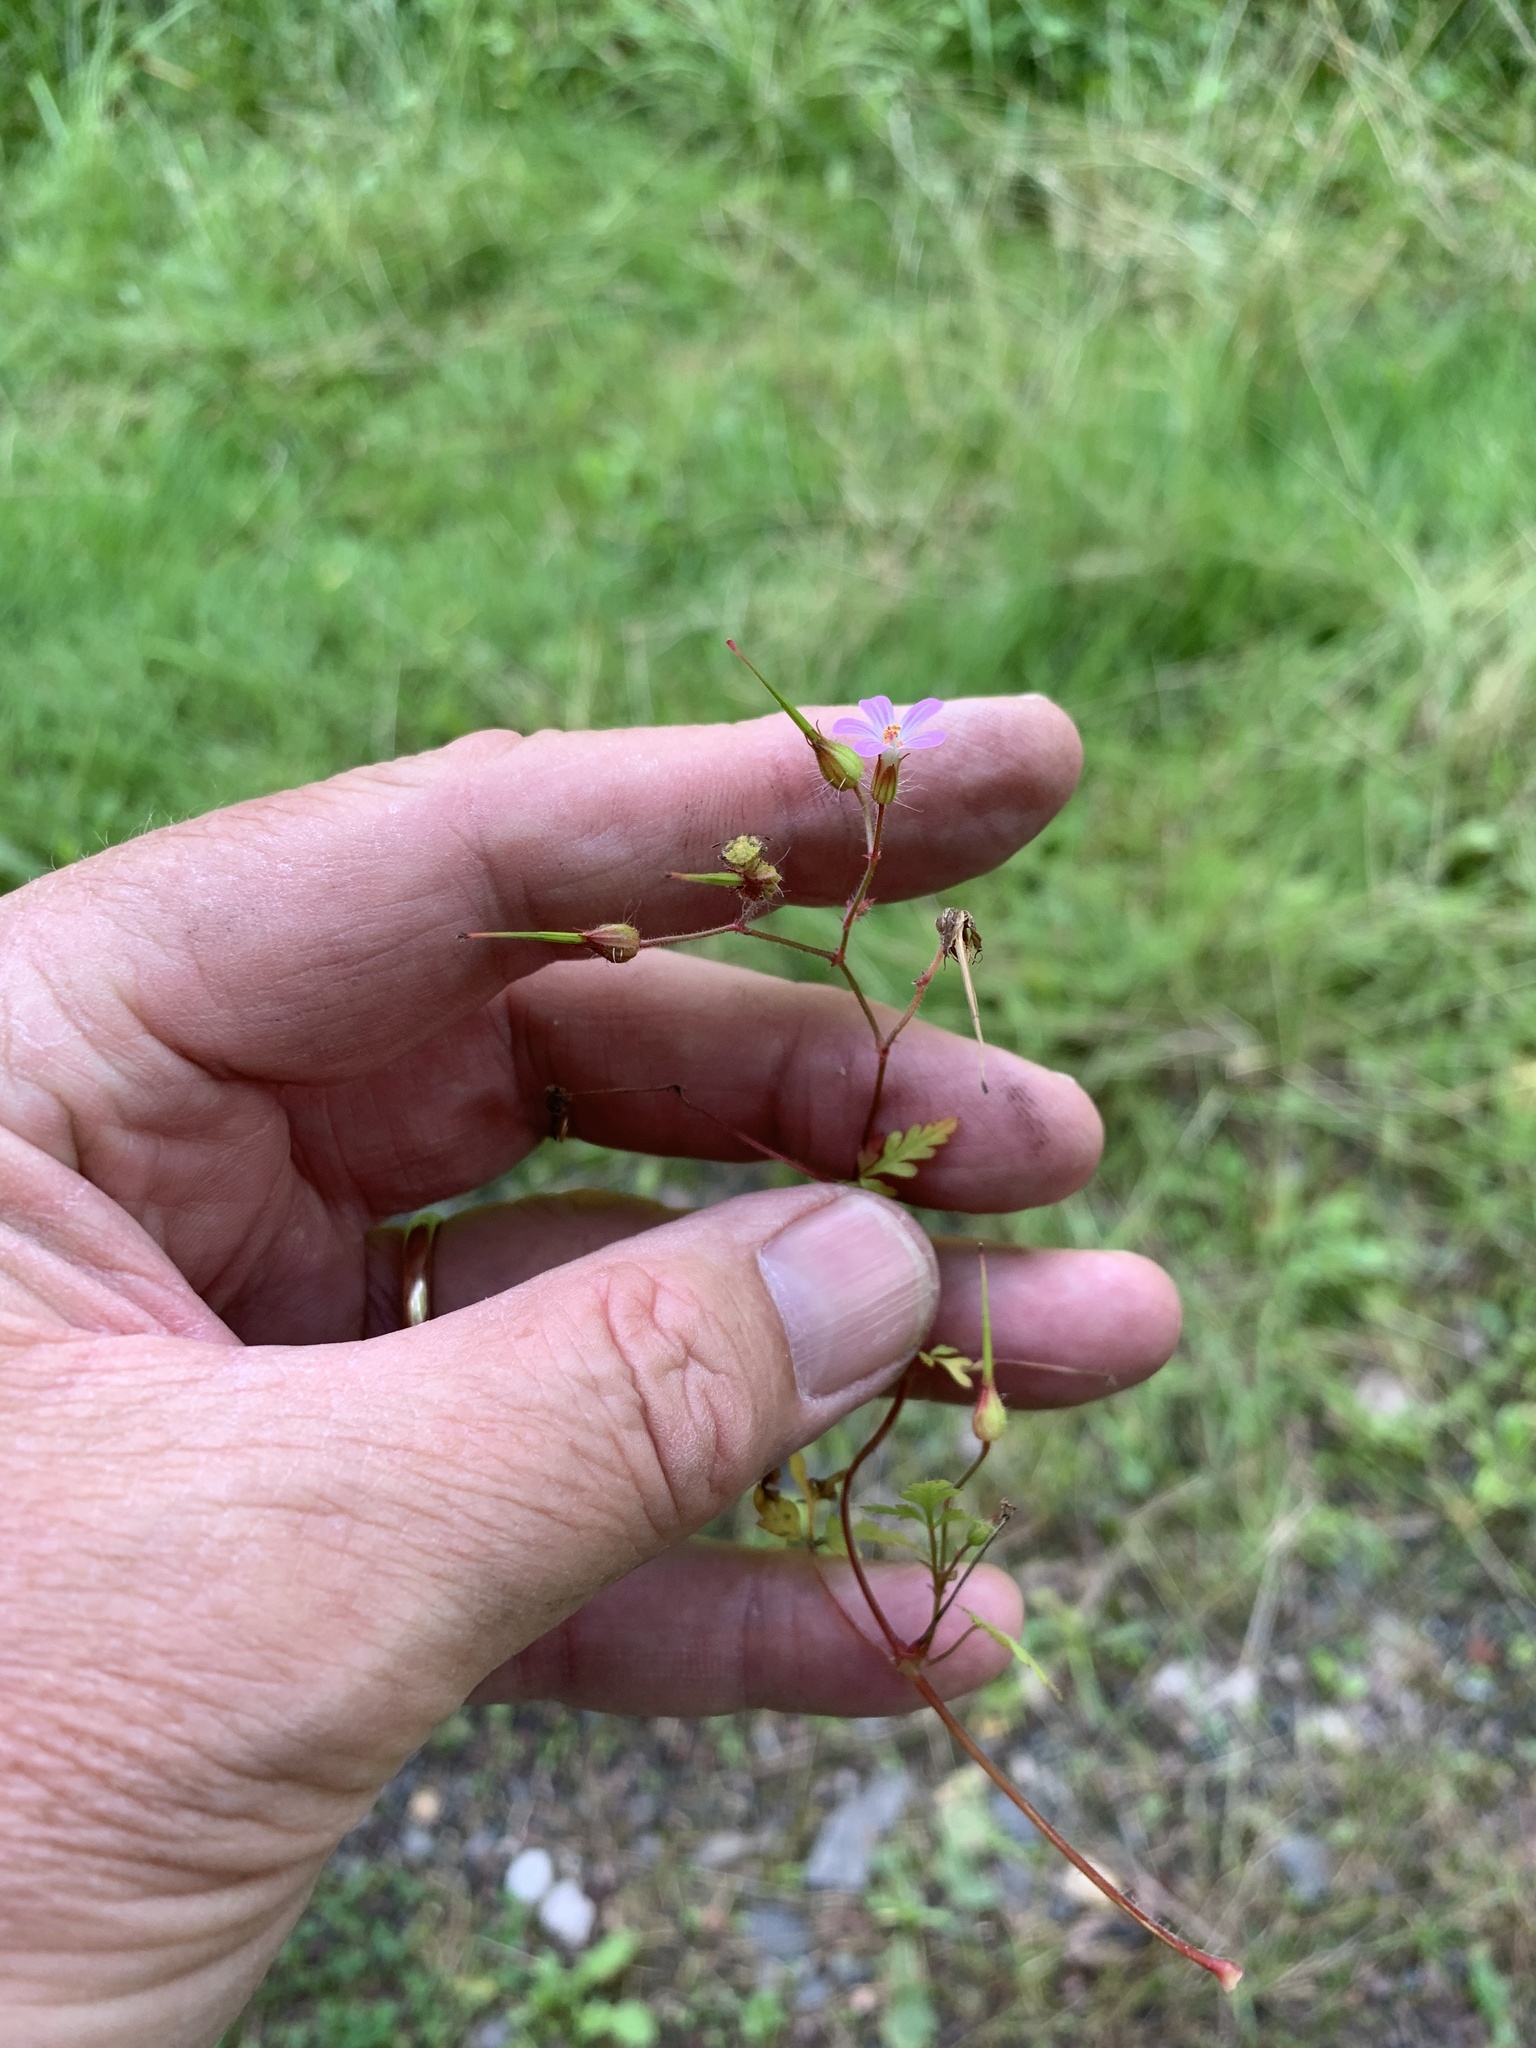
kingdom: Plantae
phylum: Tracheophyta
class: Magnoliopsida
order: Geraniales
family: Geraniaceae
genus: Geranium
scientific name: Geranium robertianum
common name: Herb-robert
